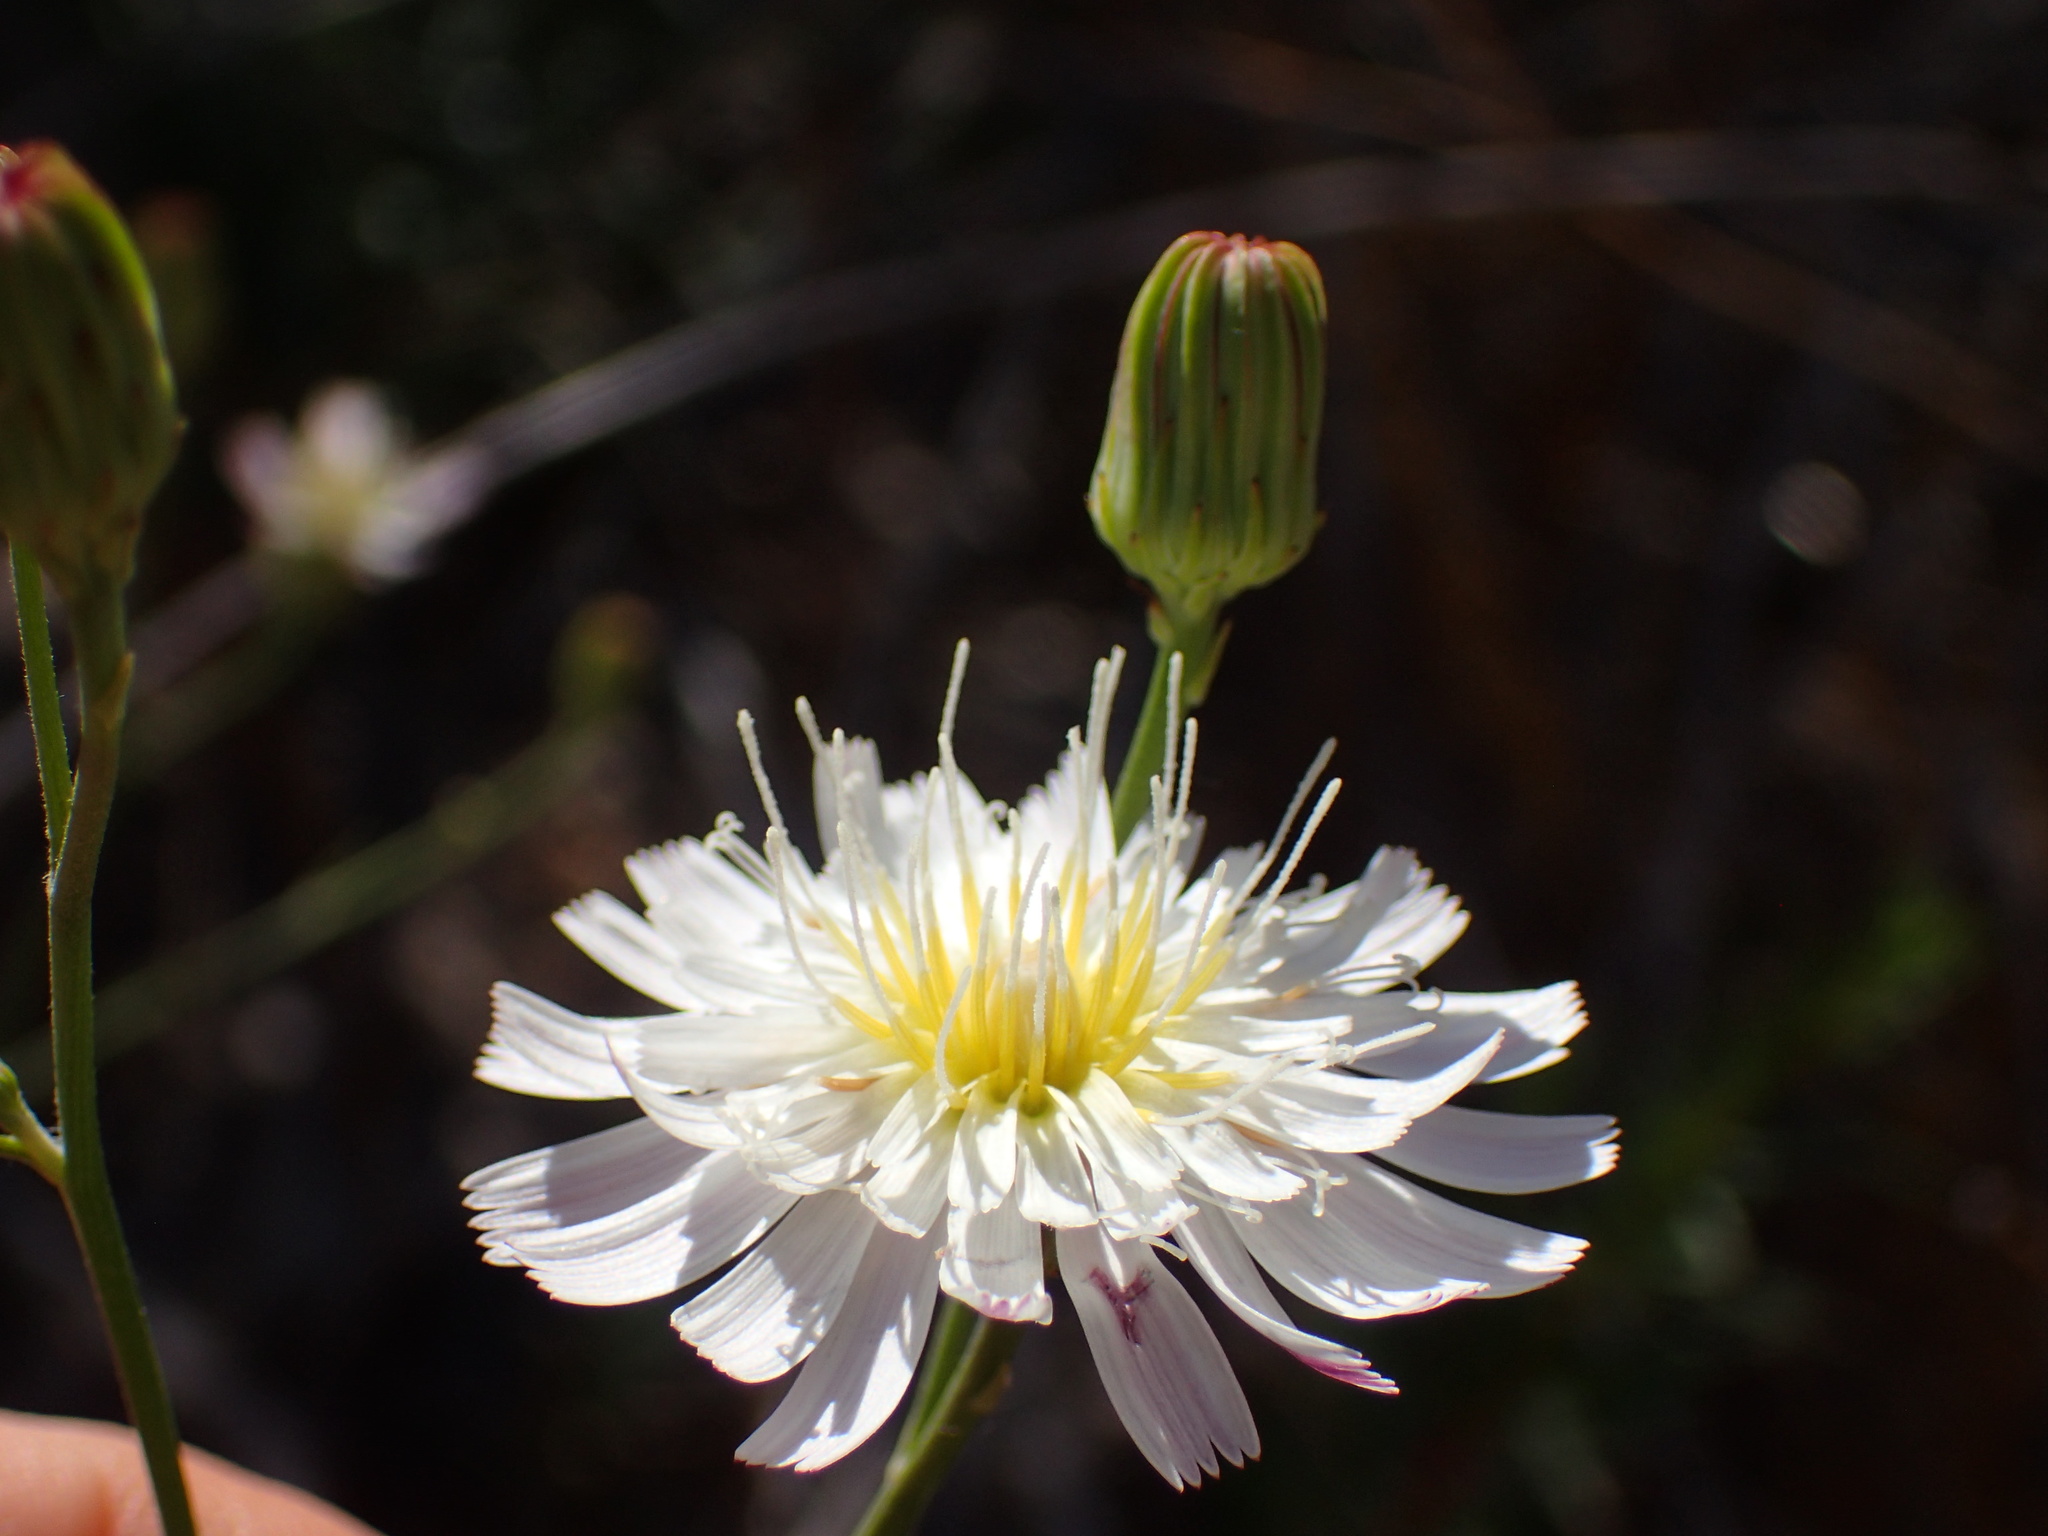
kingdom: Plantae
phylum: Tracheophyta
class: Magnoliopsida
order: Asterales
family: Asteraceae
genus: Malacothrix
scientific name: Malacothrix saxatilis
